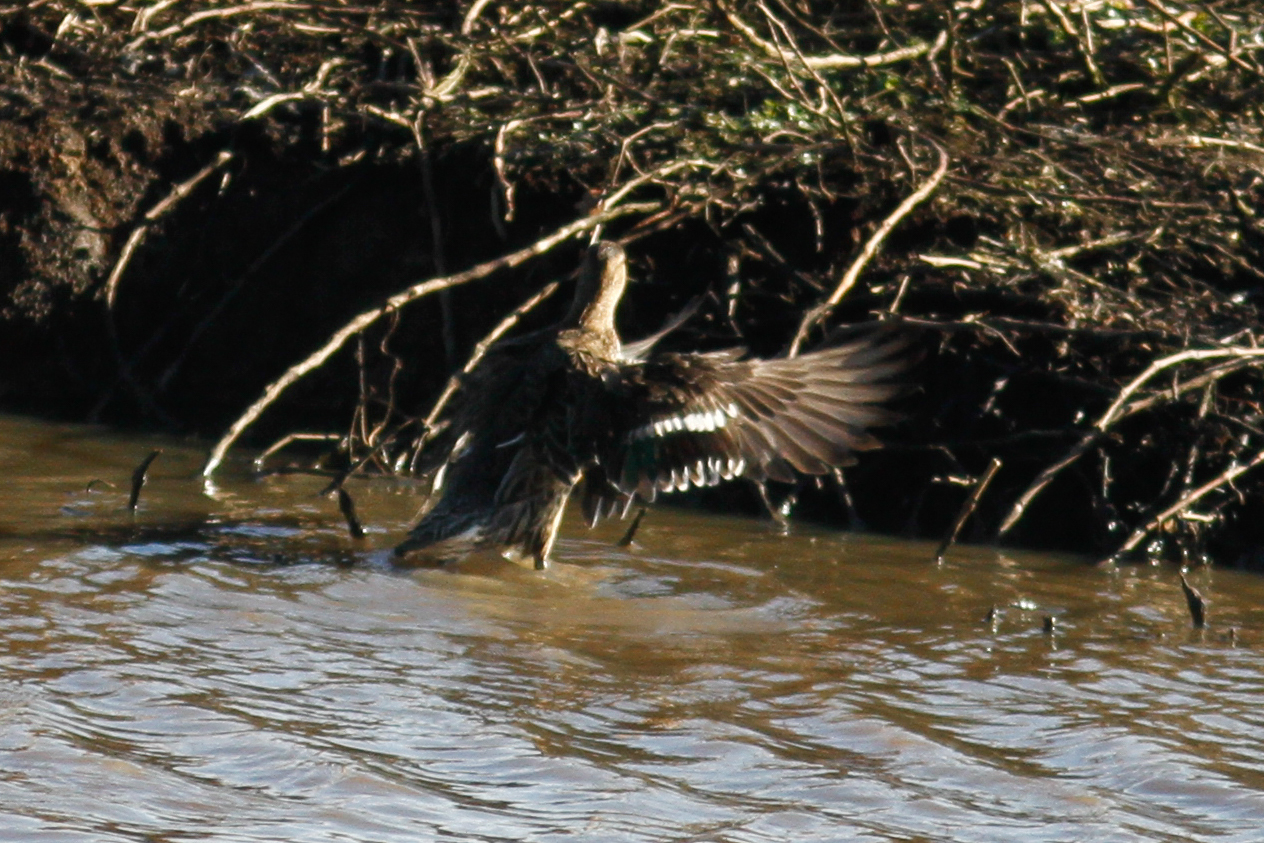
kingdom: Animalia
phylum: Chordata
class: Aves
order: Anseriformes
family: Anatidae
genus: Anas
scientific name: Anas crecca
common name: Eurasian teal
